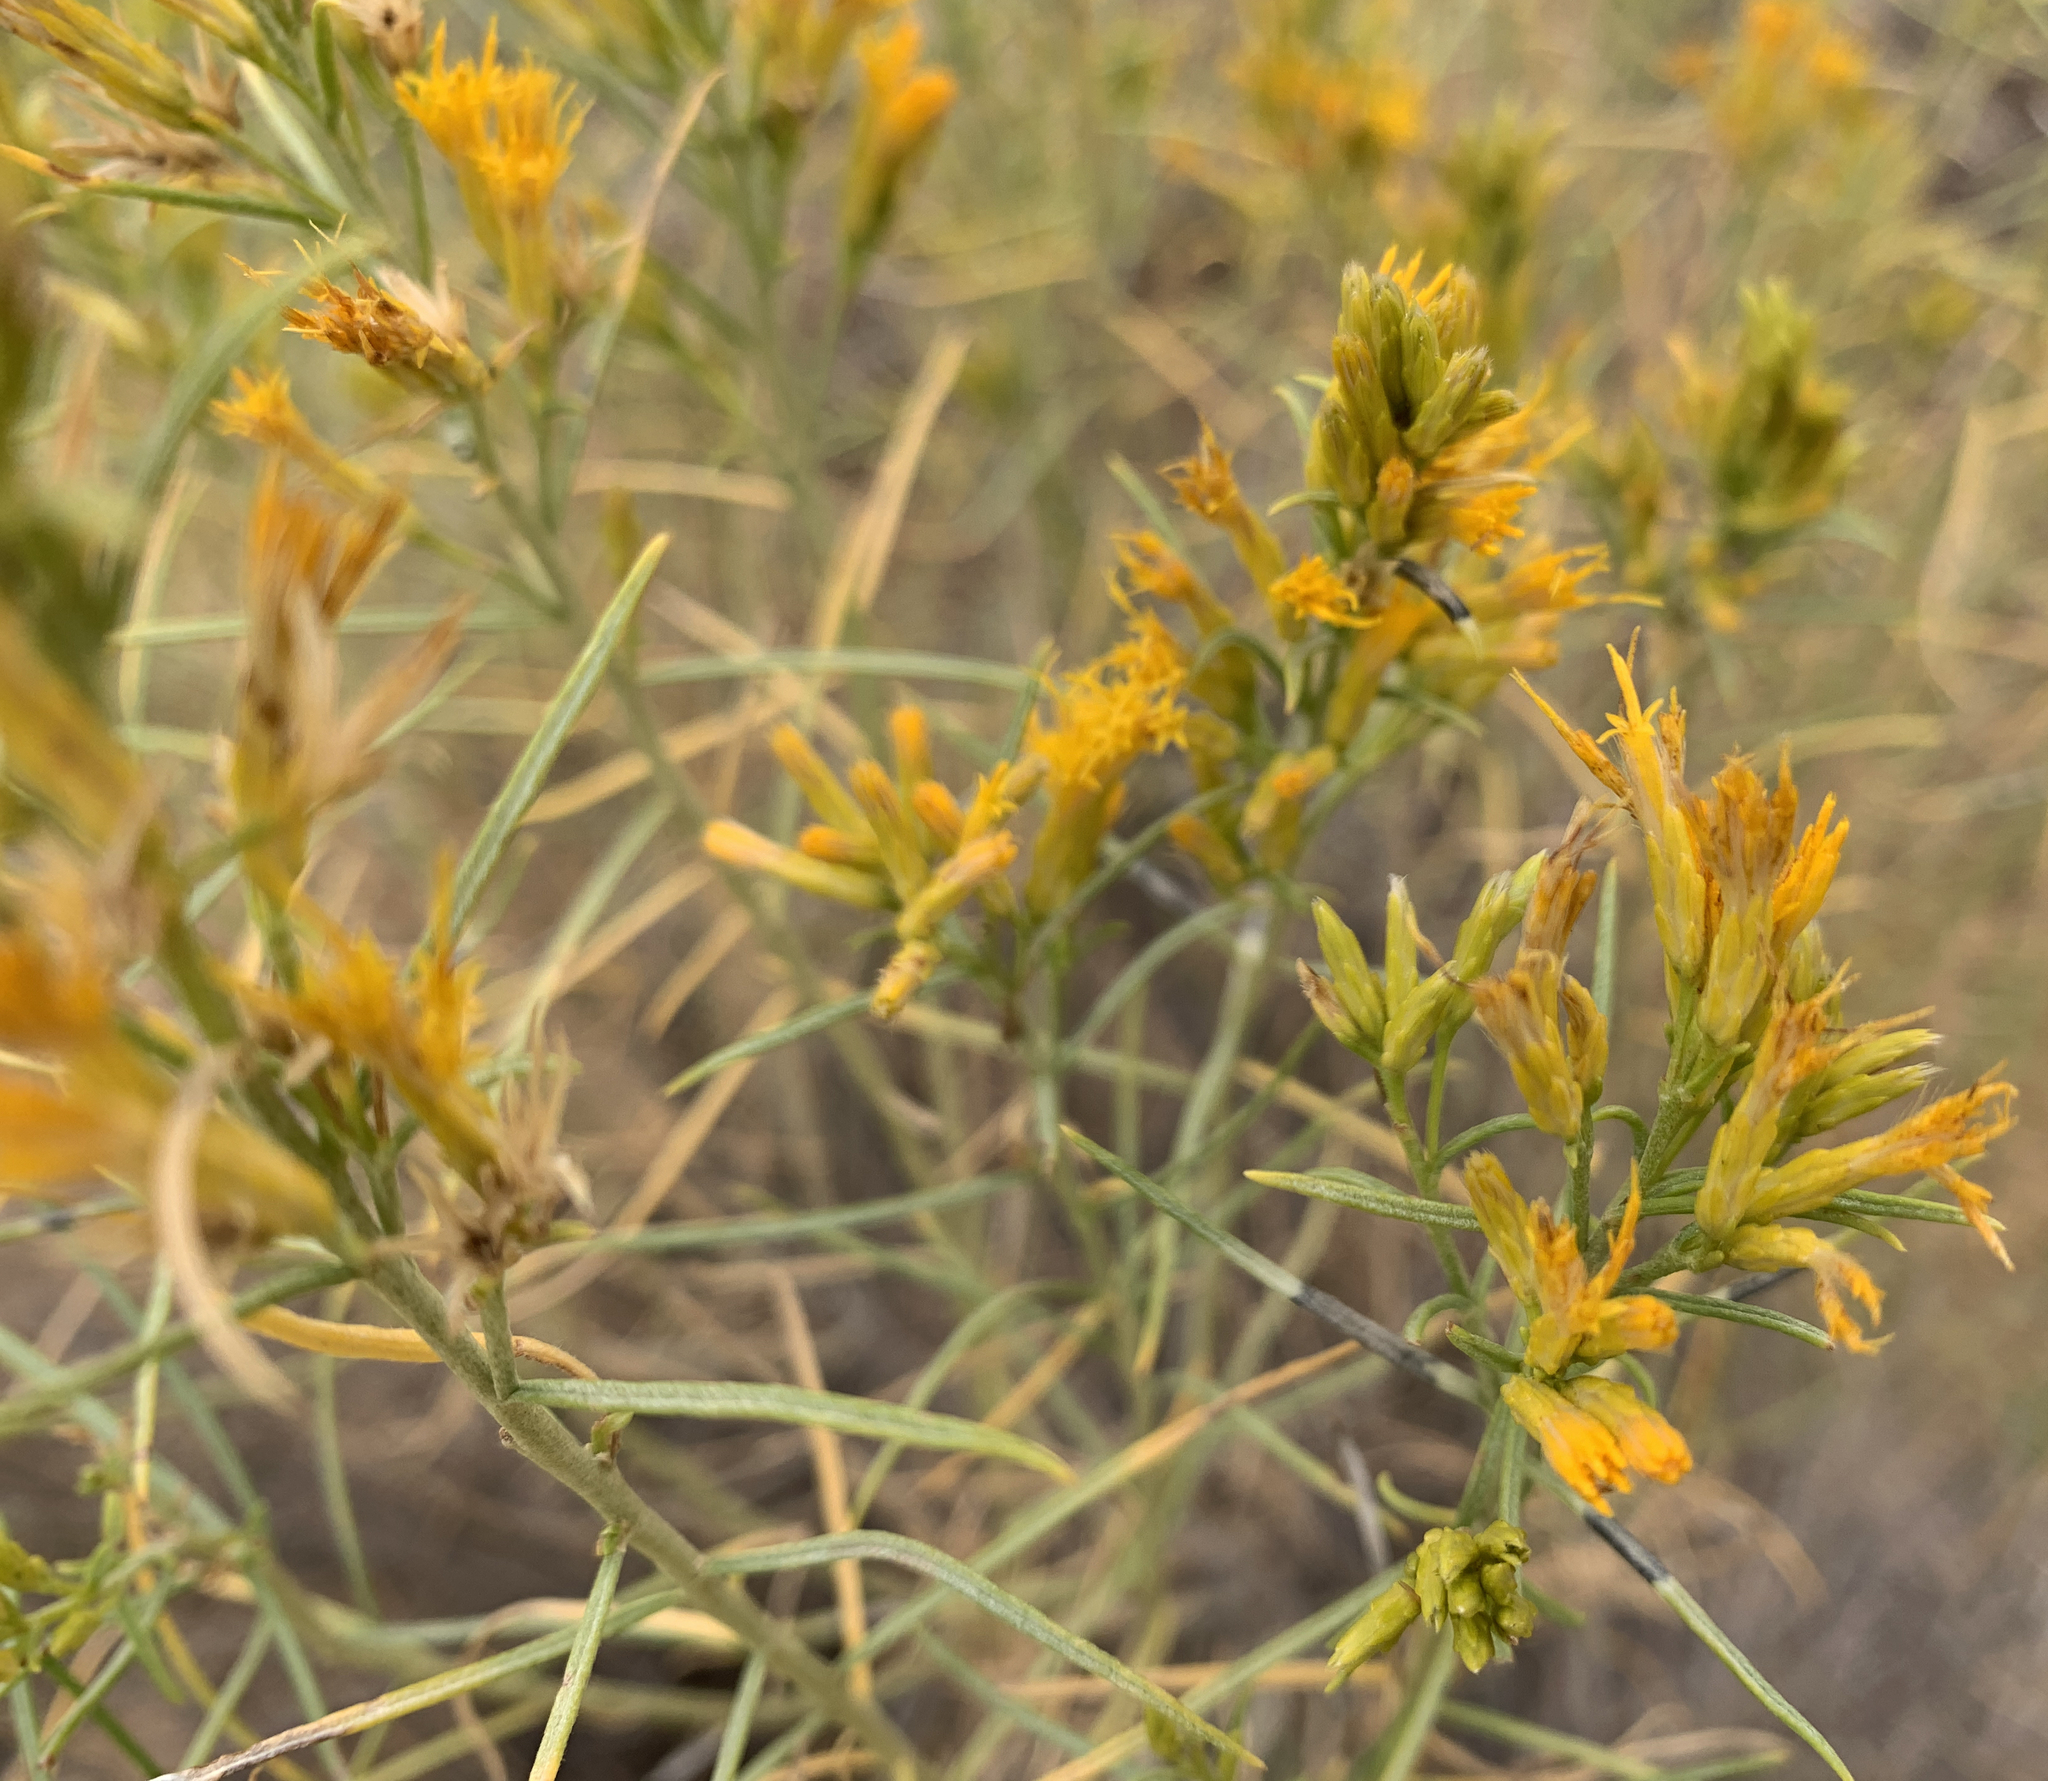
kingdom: Plantae
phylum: Tracheophyta
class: Magnoliopsida
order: Asterales
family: Asteraceae
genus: Ericameria
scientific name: Ericameria nauseosa
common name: Rubber rabbitbrush
